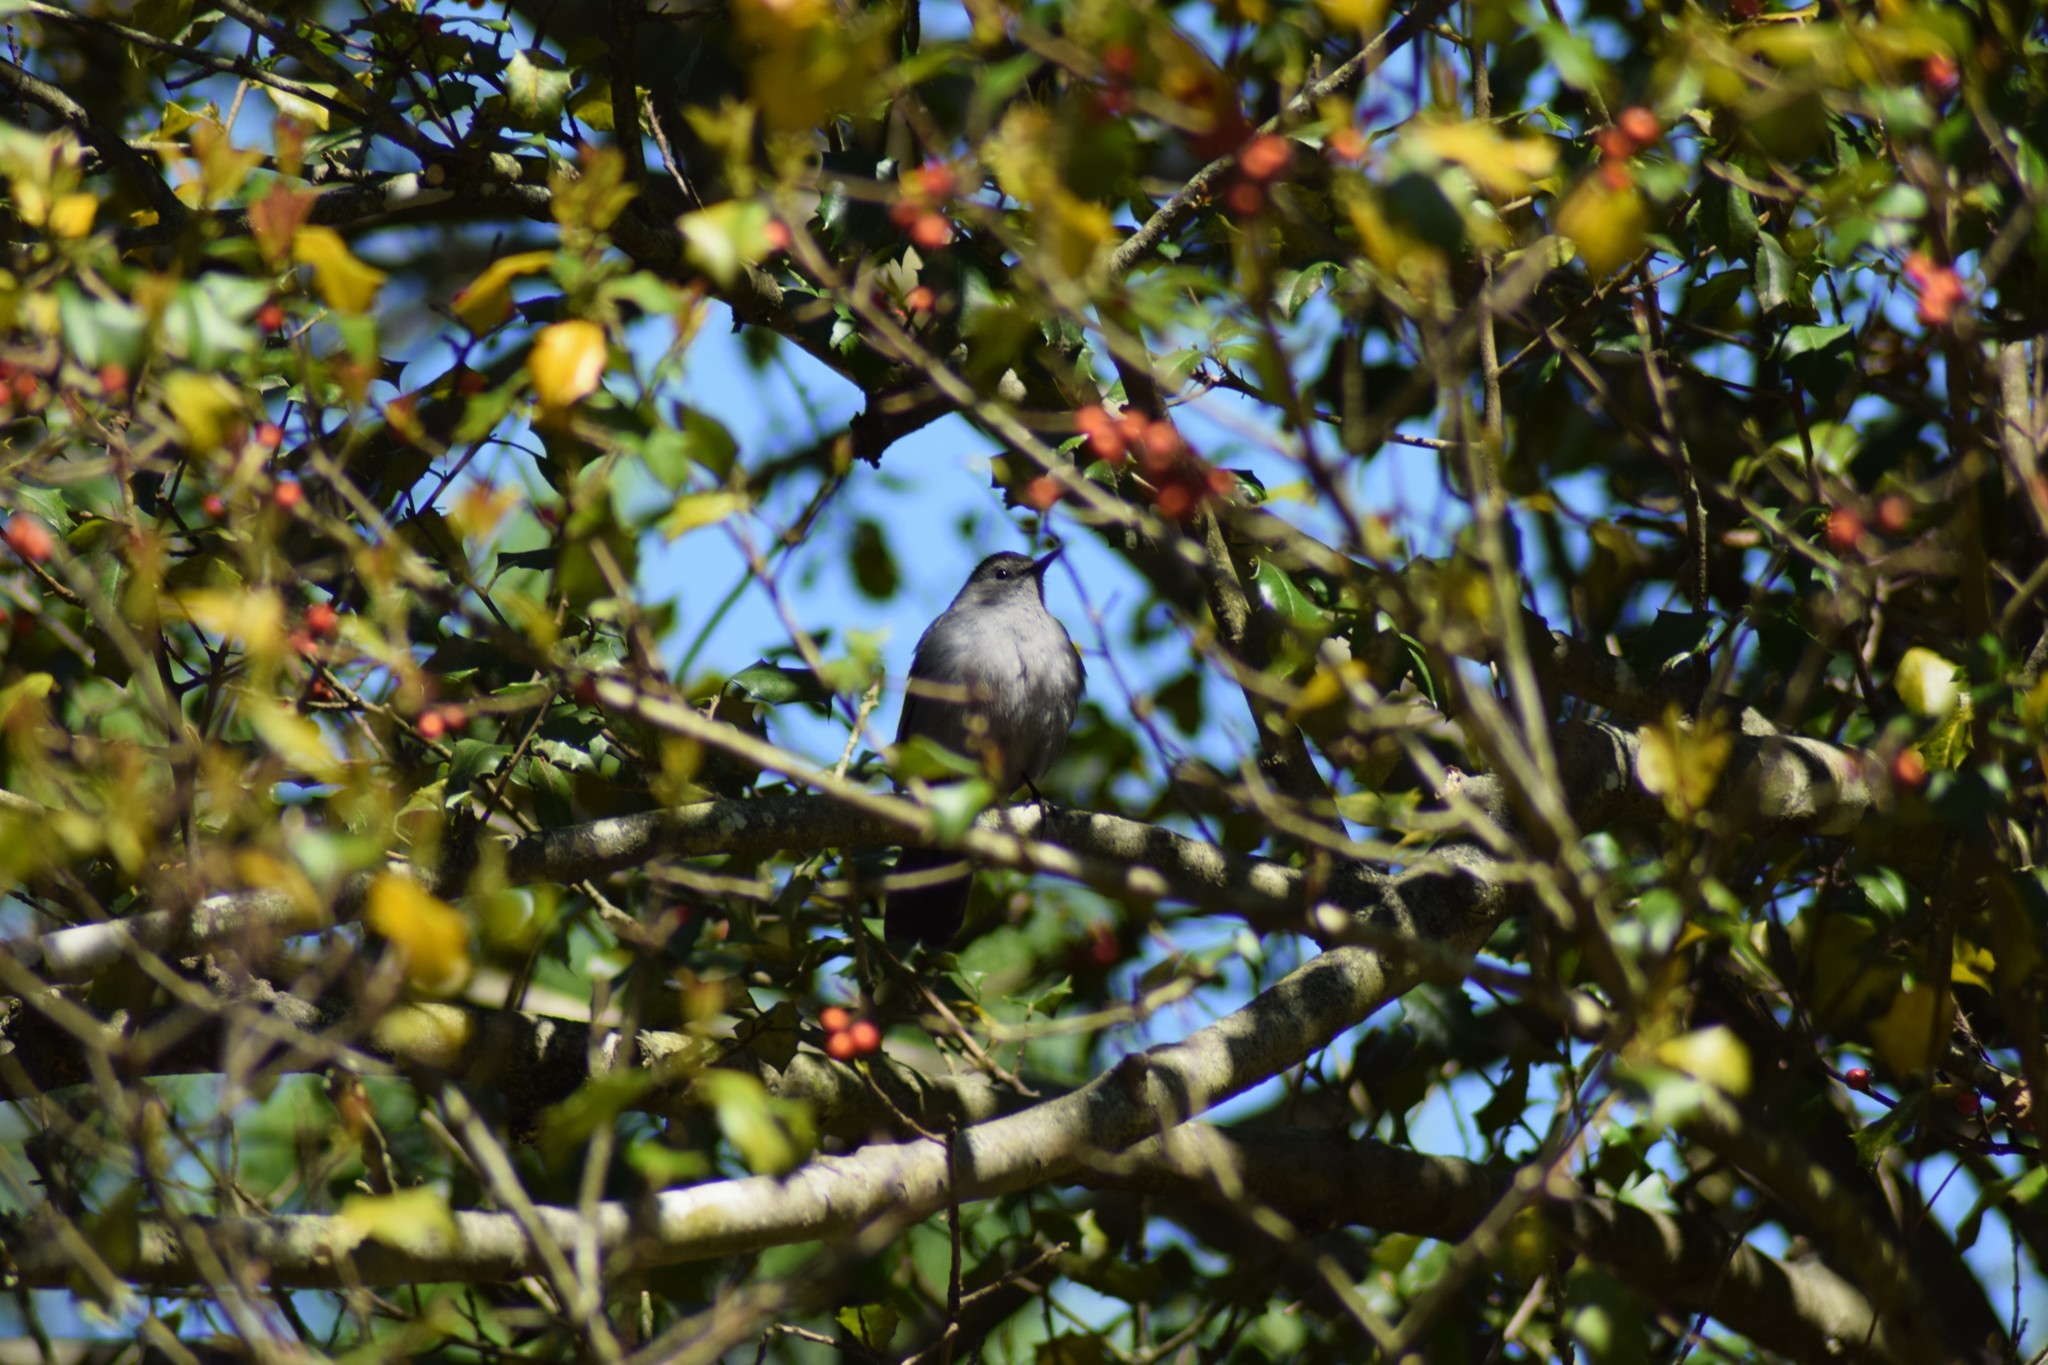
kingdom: Animalia
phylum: Chordata
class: Aves
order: Passeriformes
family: Mimidae
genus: Dumetella
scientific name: Dumetella carolinensis
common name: Gray catbird
